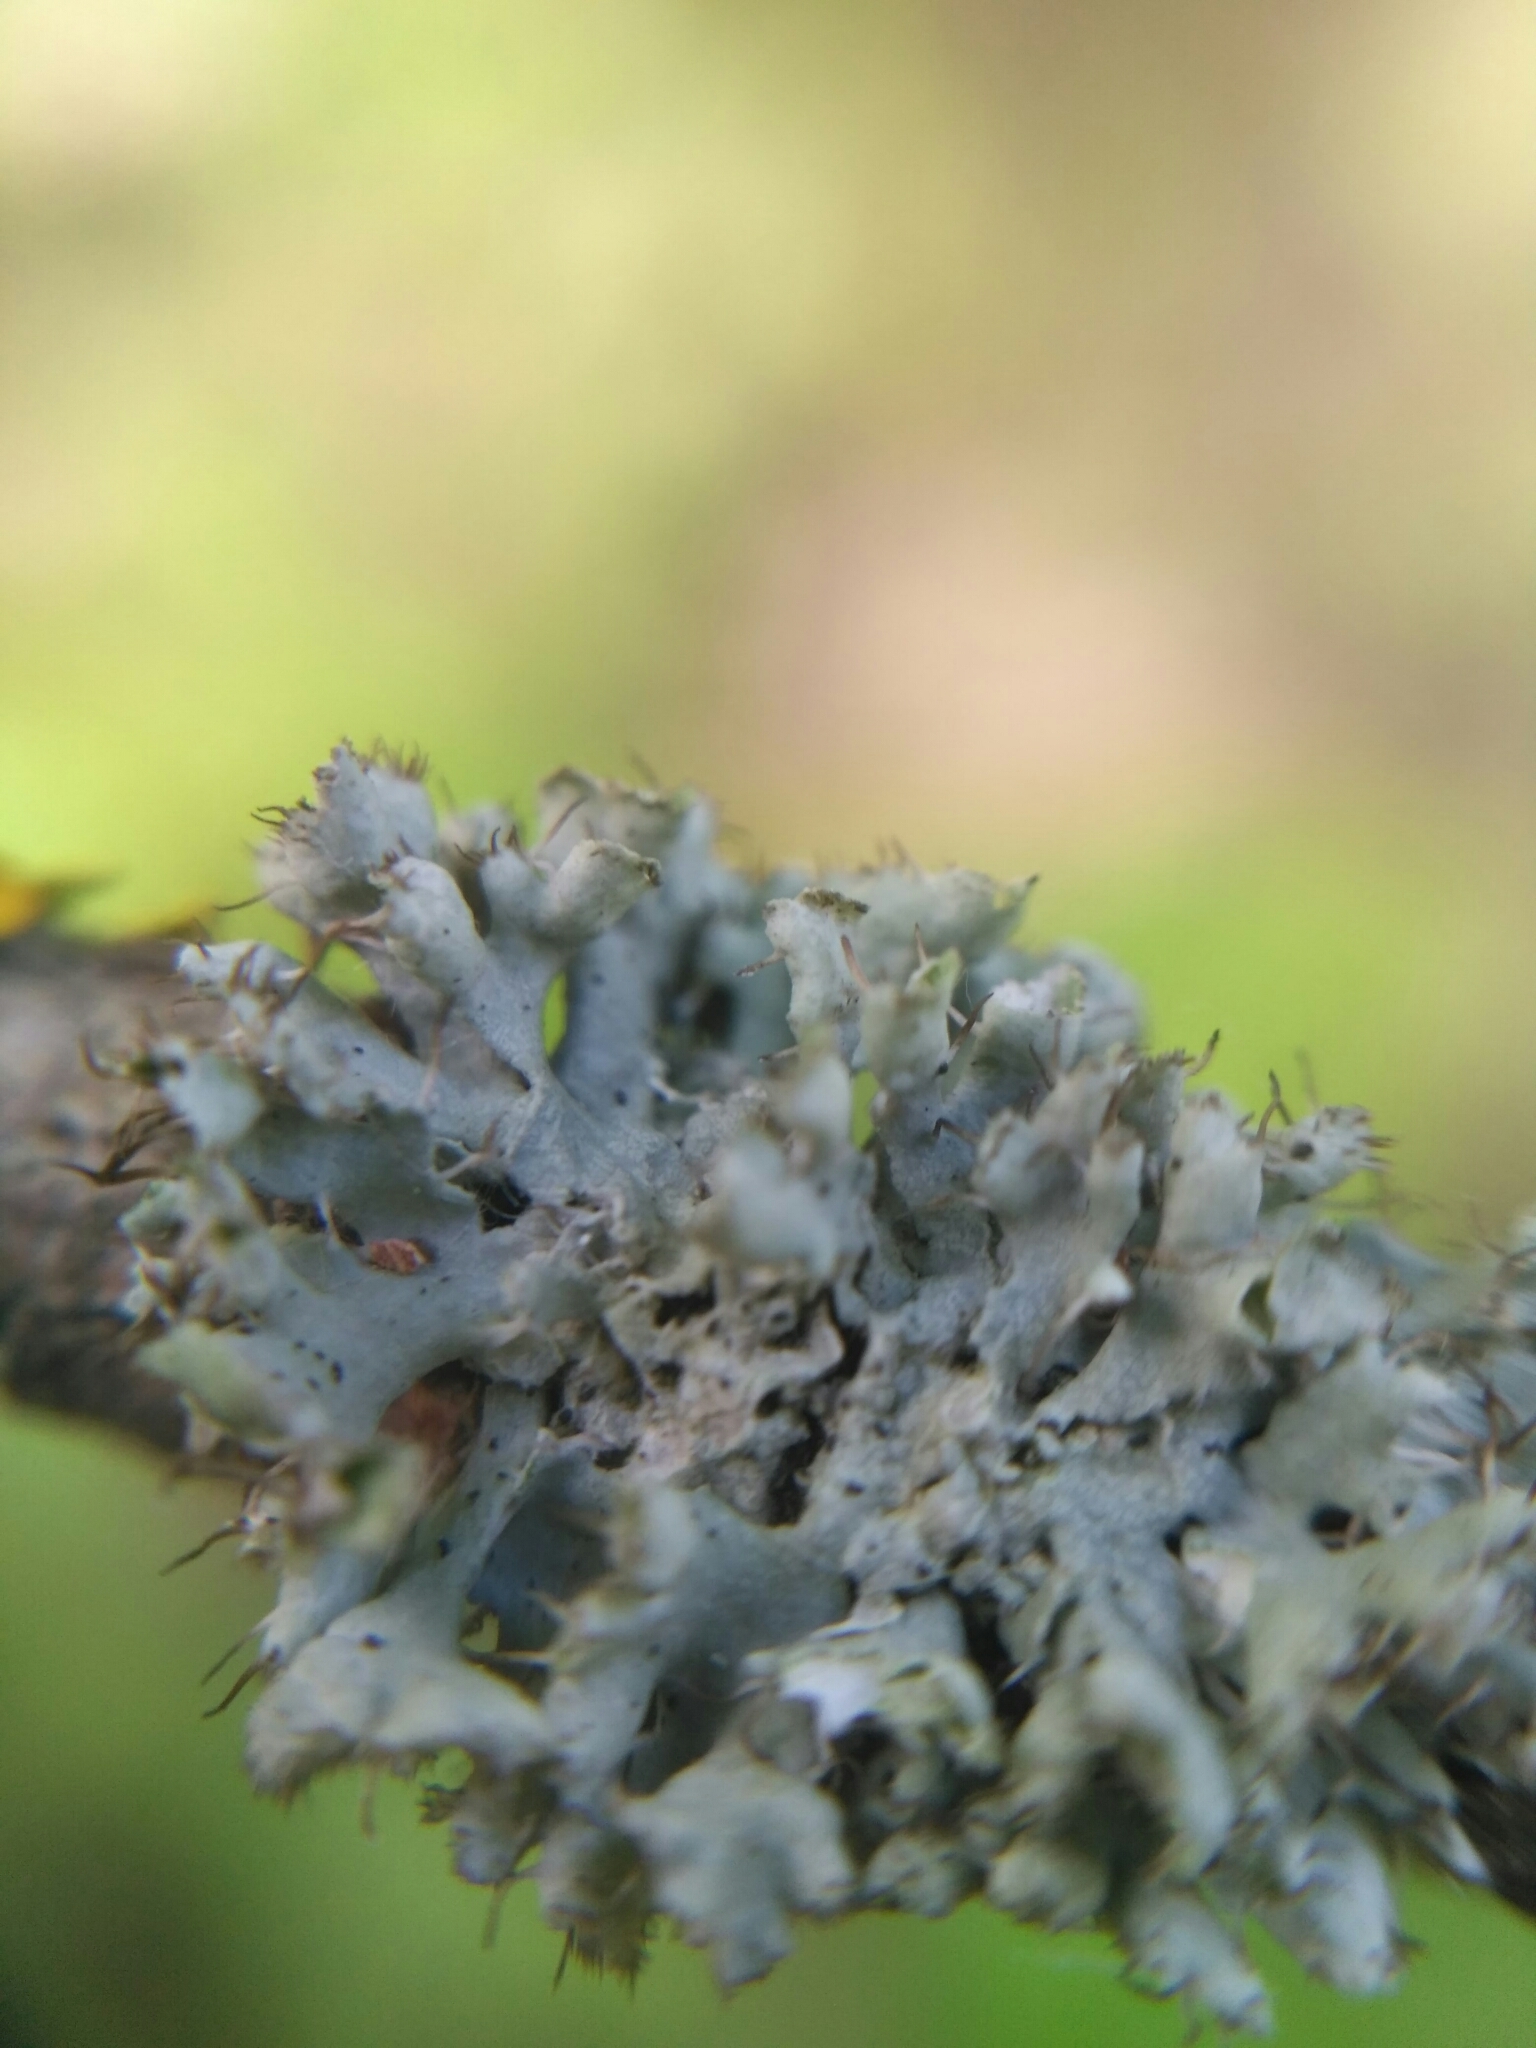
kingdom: Fungi
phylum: Ascomycota
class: Lecanoromycetes
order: Caliciales
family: Physciaceae
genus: Physcia
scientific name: Physcia adscendens
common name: Hooded rosette lichen
